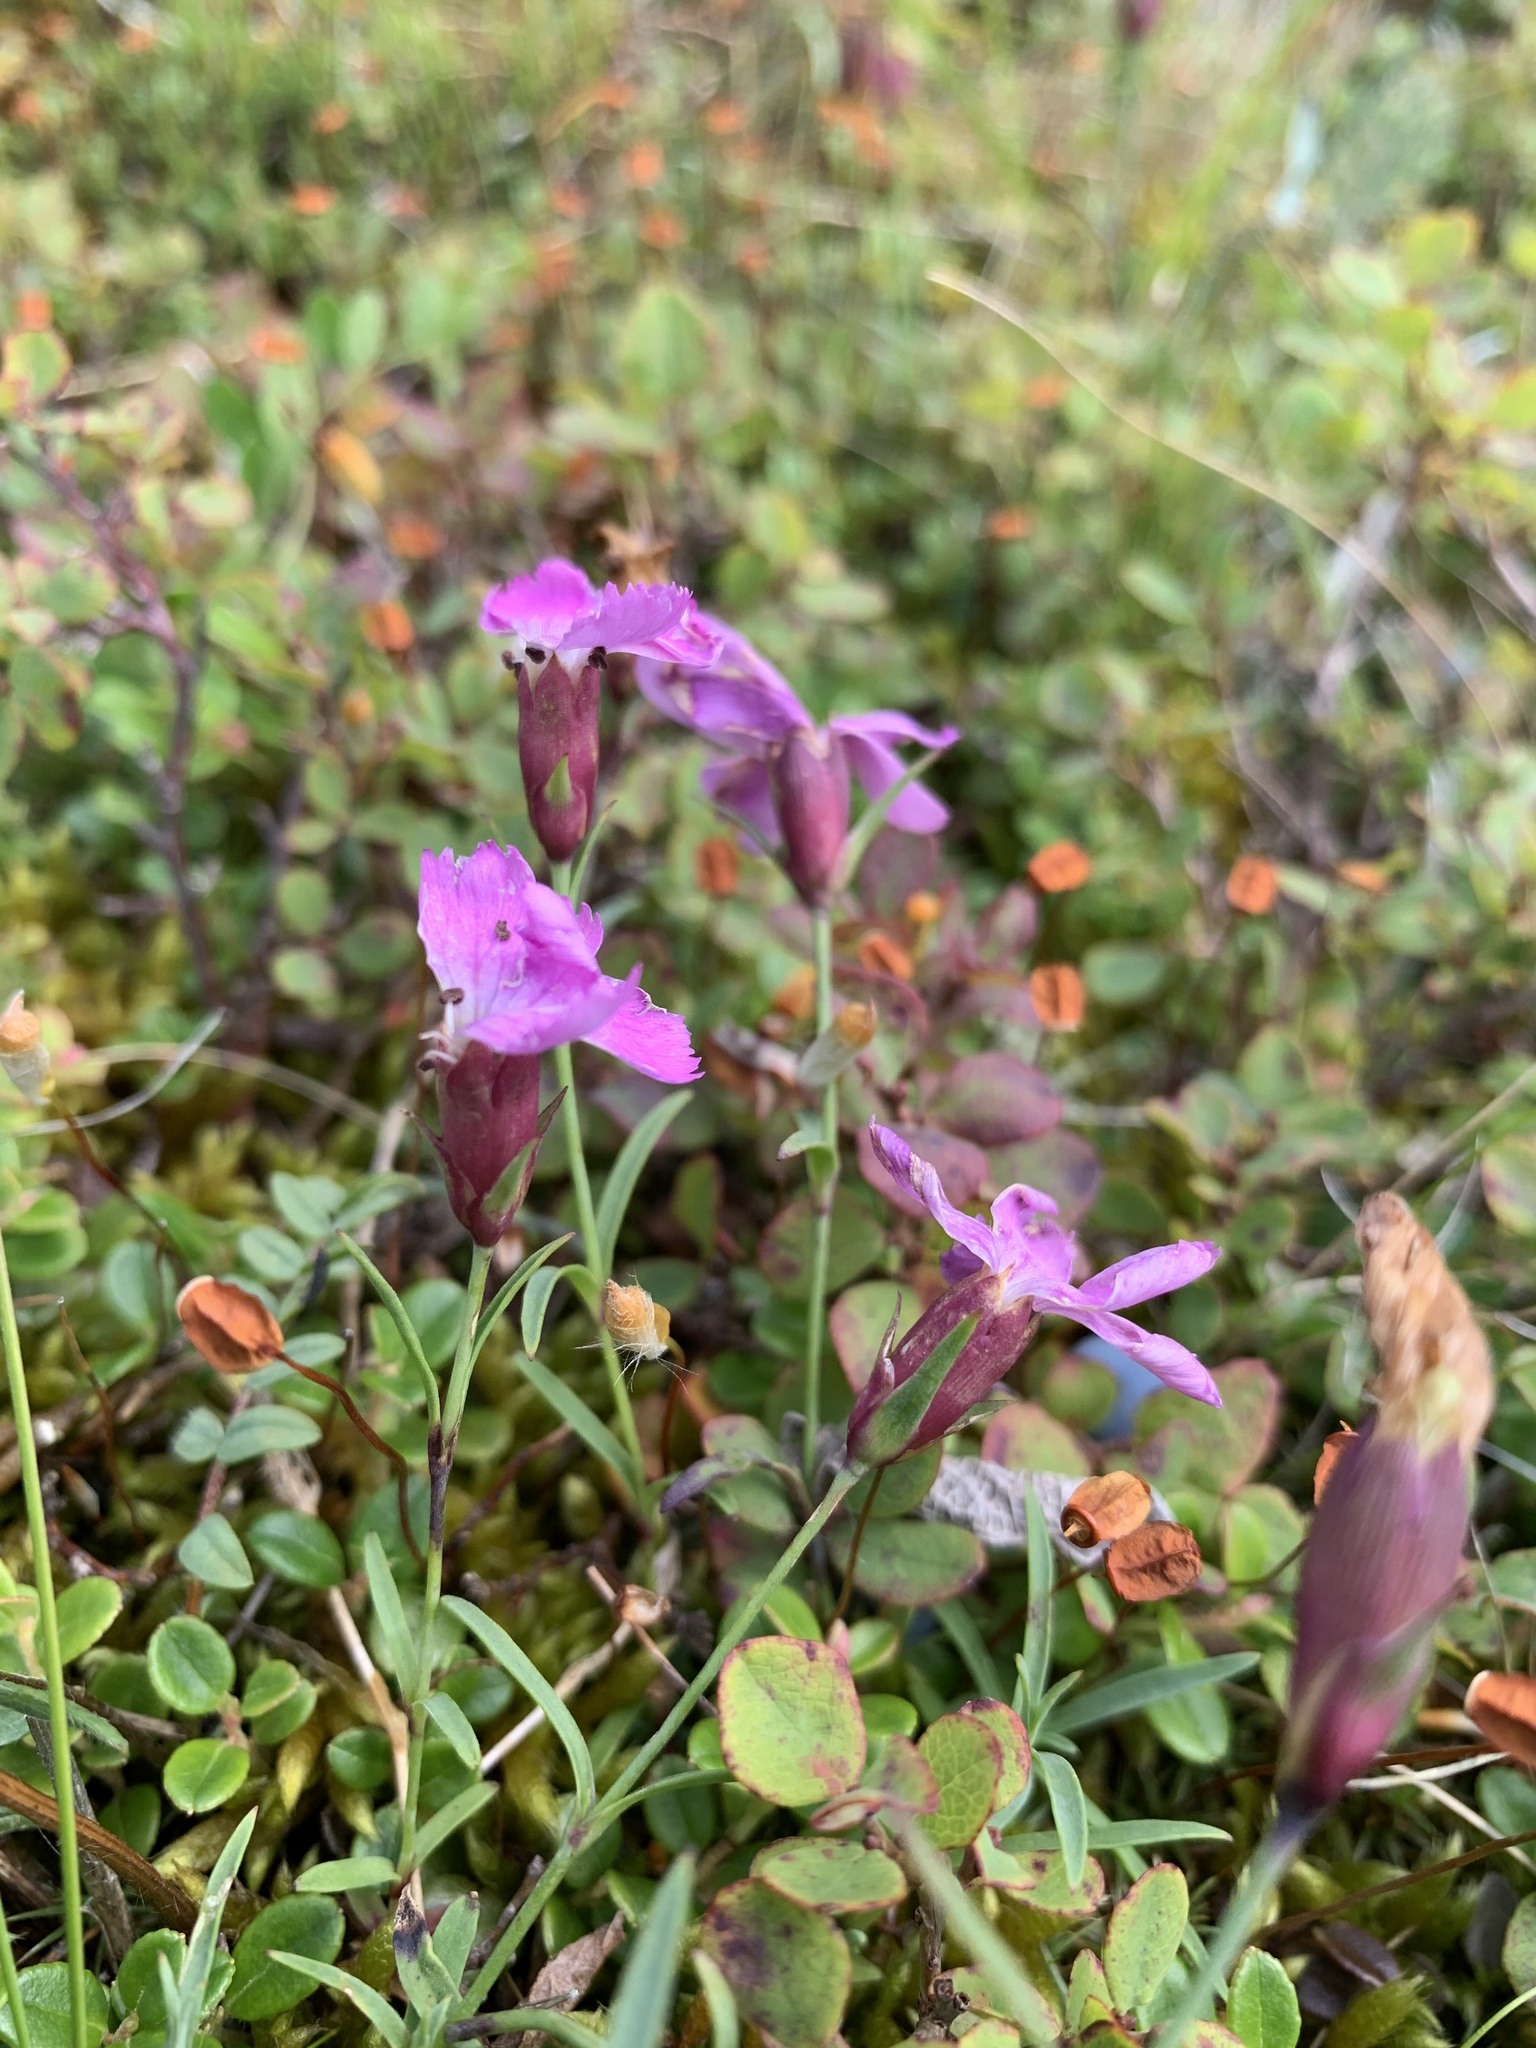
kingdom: Plantae
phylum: Tracheophyta
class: Magnoliopsida
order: Caryophyllales
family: Caryophyllaceae
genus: Dianthus
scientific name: Dianthus repens
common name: Northern pink
